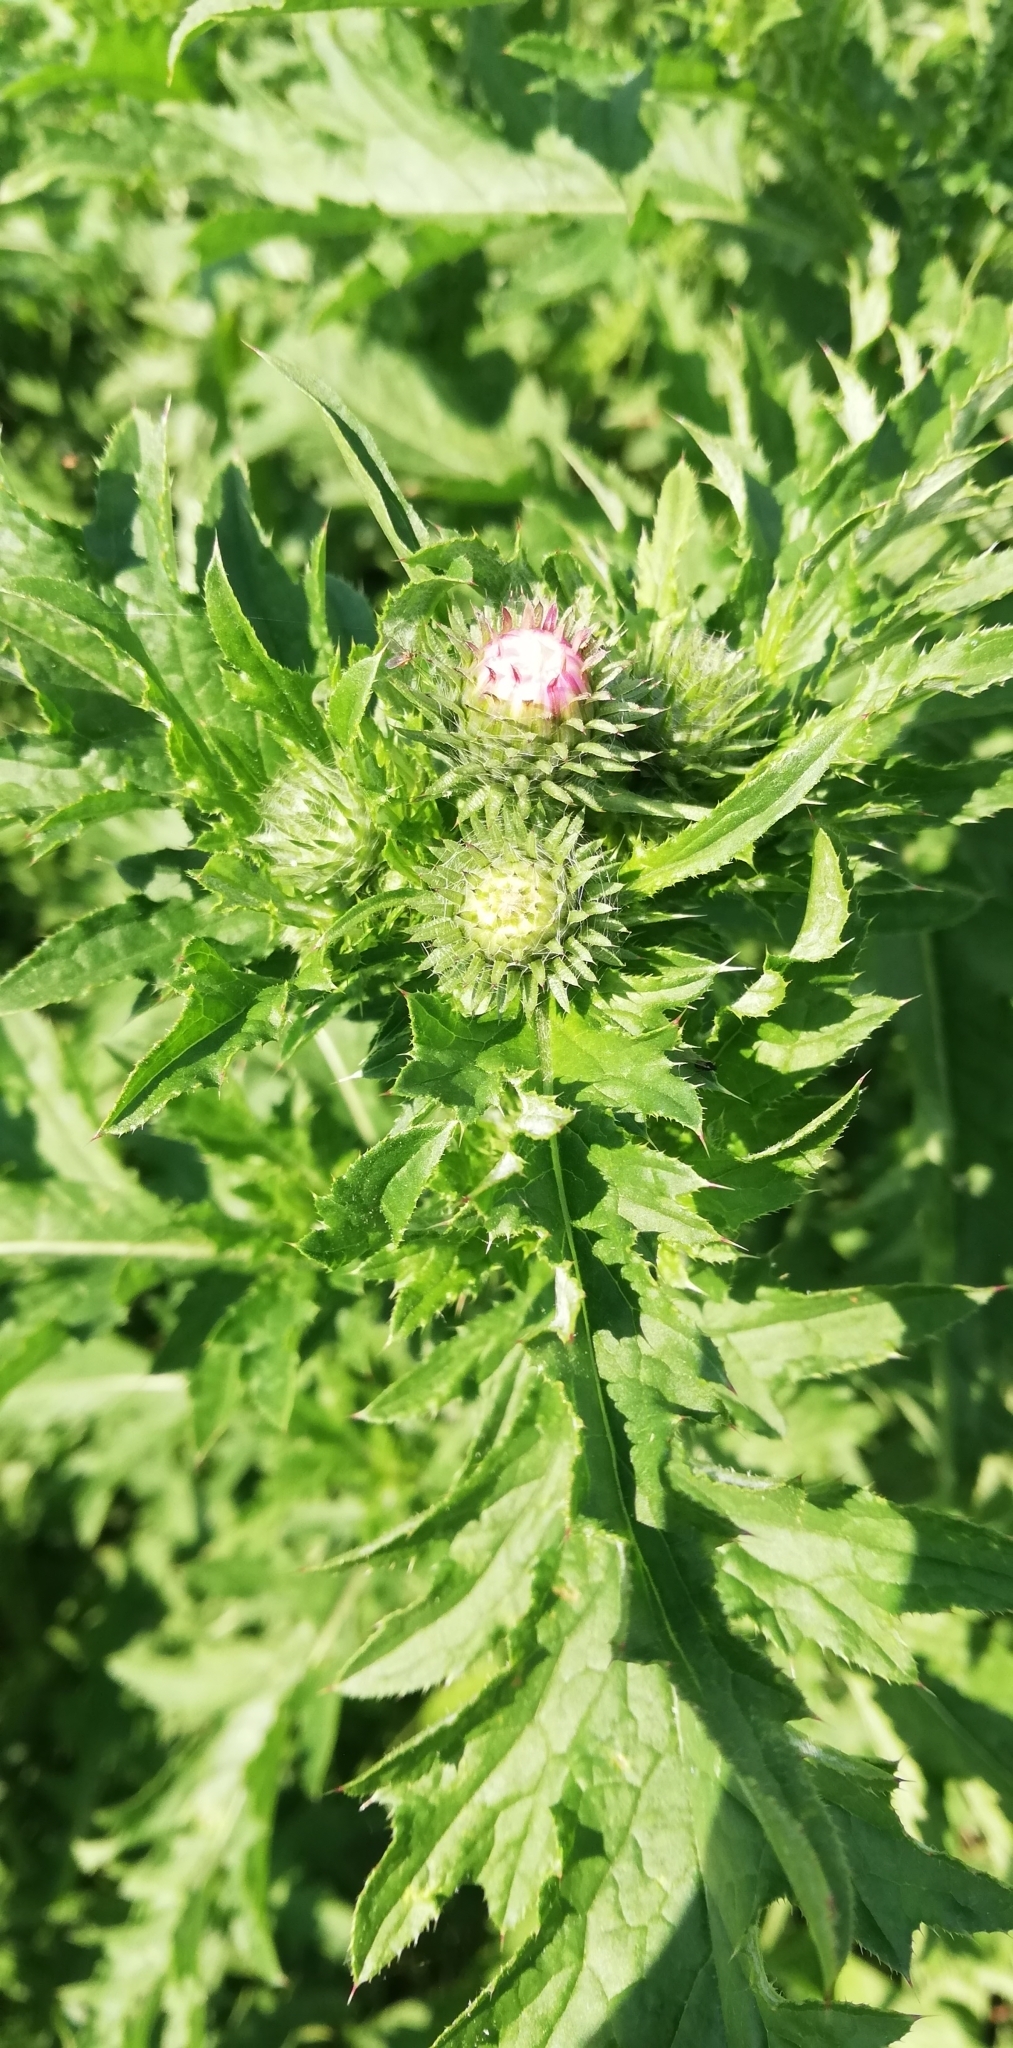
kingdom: Plantae
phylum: Tracheophyta
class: Magnoliopsida
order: Asterales
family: Asteraceae
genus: Carduus
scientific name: Carduus crispus
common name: Welted thistle
